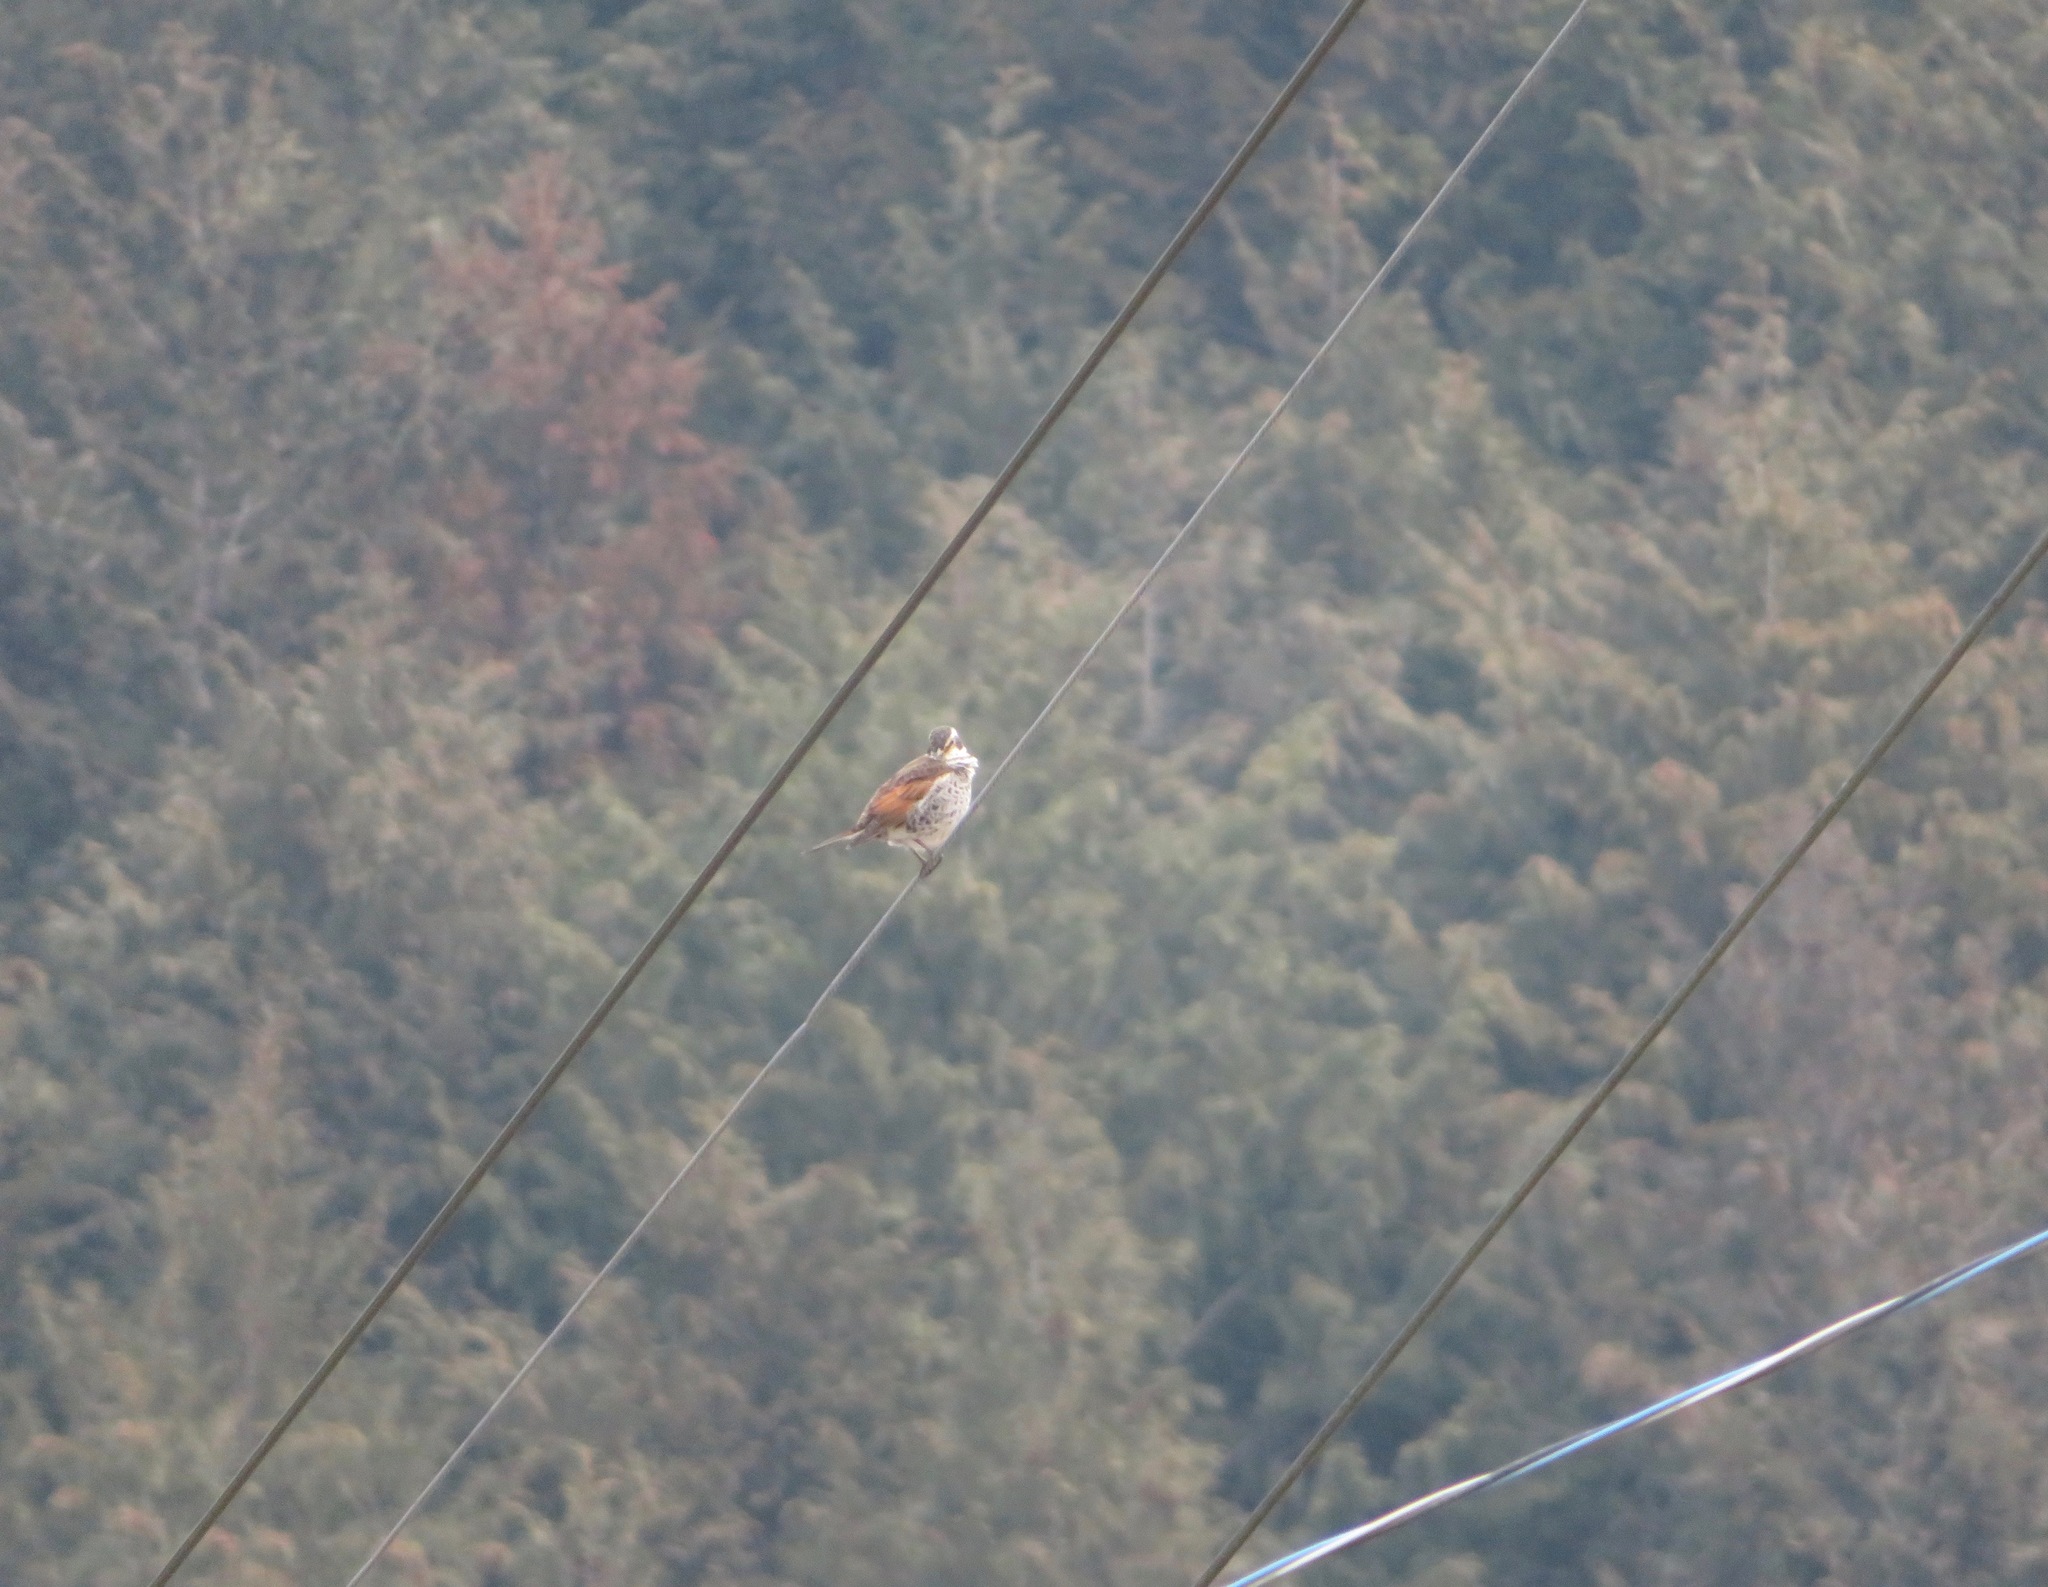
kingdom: Animalia
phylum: Chordata
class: Aves
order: Passeriformes
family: Turdidae
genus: Turdus
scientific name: Turdus eunomus
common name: Dusky thrush
